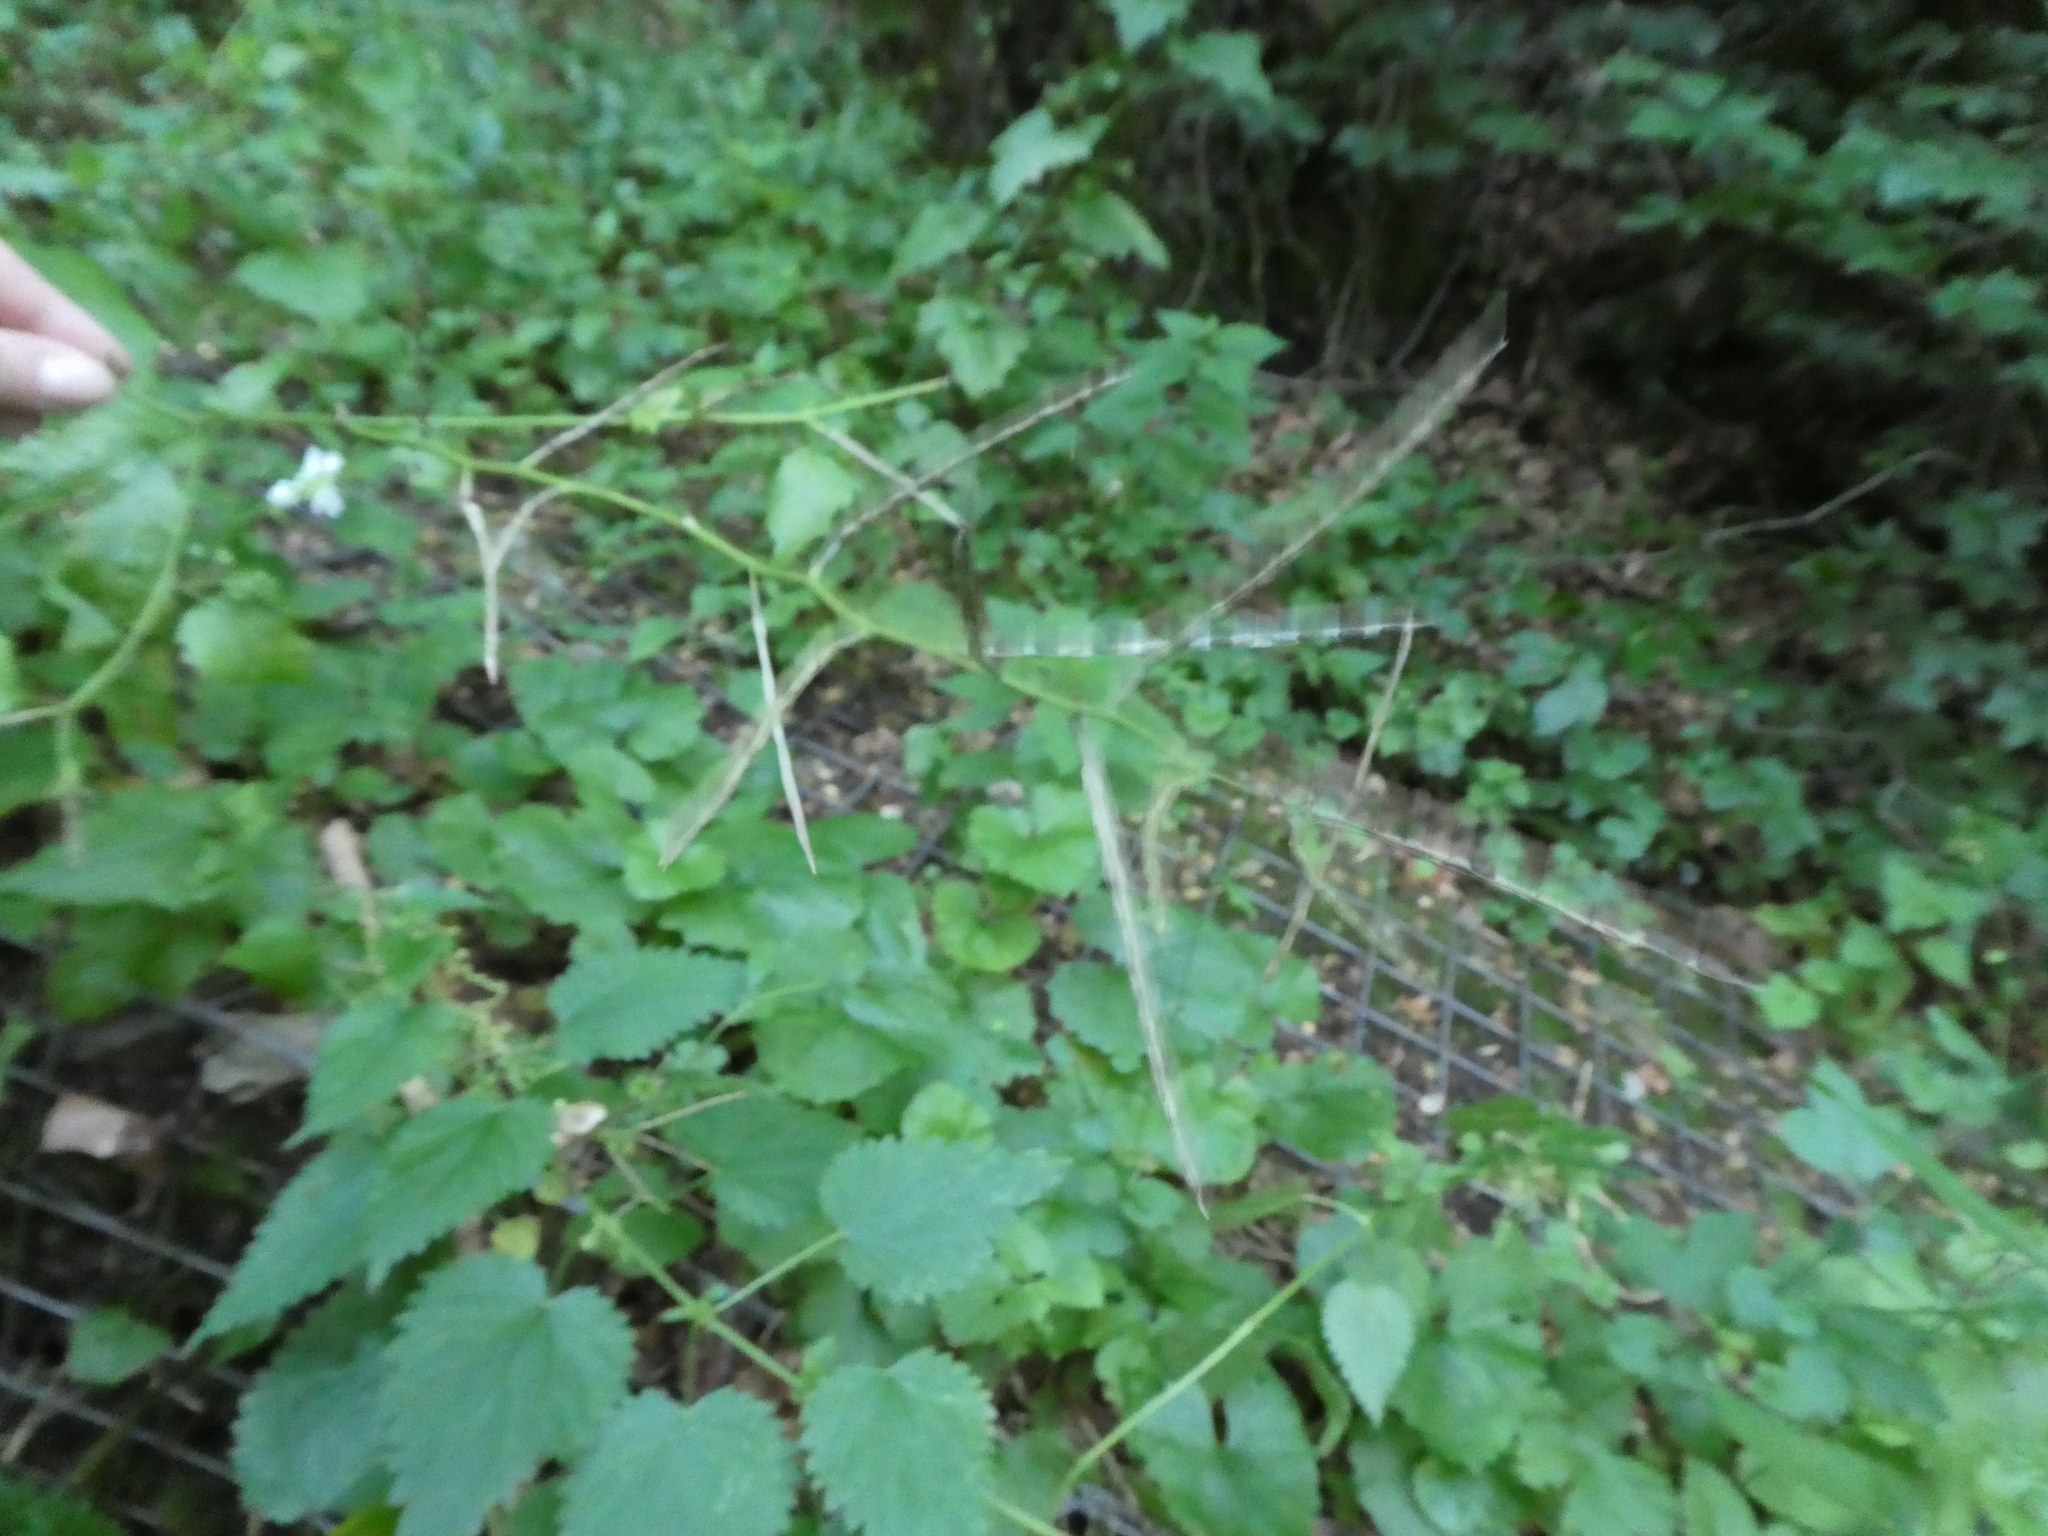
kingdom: Plantae
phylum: Tracheophyta
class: Magnoliopsida
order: Brassicales
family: Brassicaceae
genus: Alliaria
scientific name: Alliaria petiolata
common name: Garlic mustard
